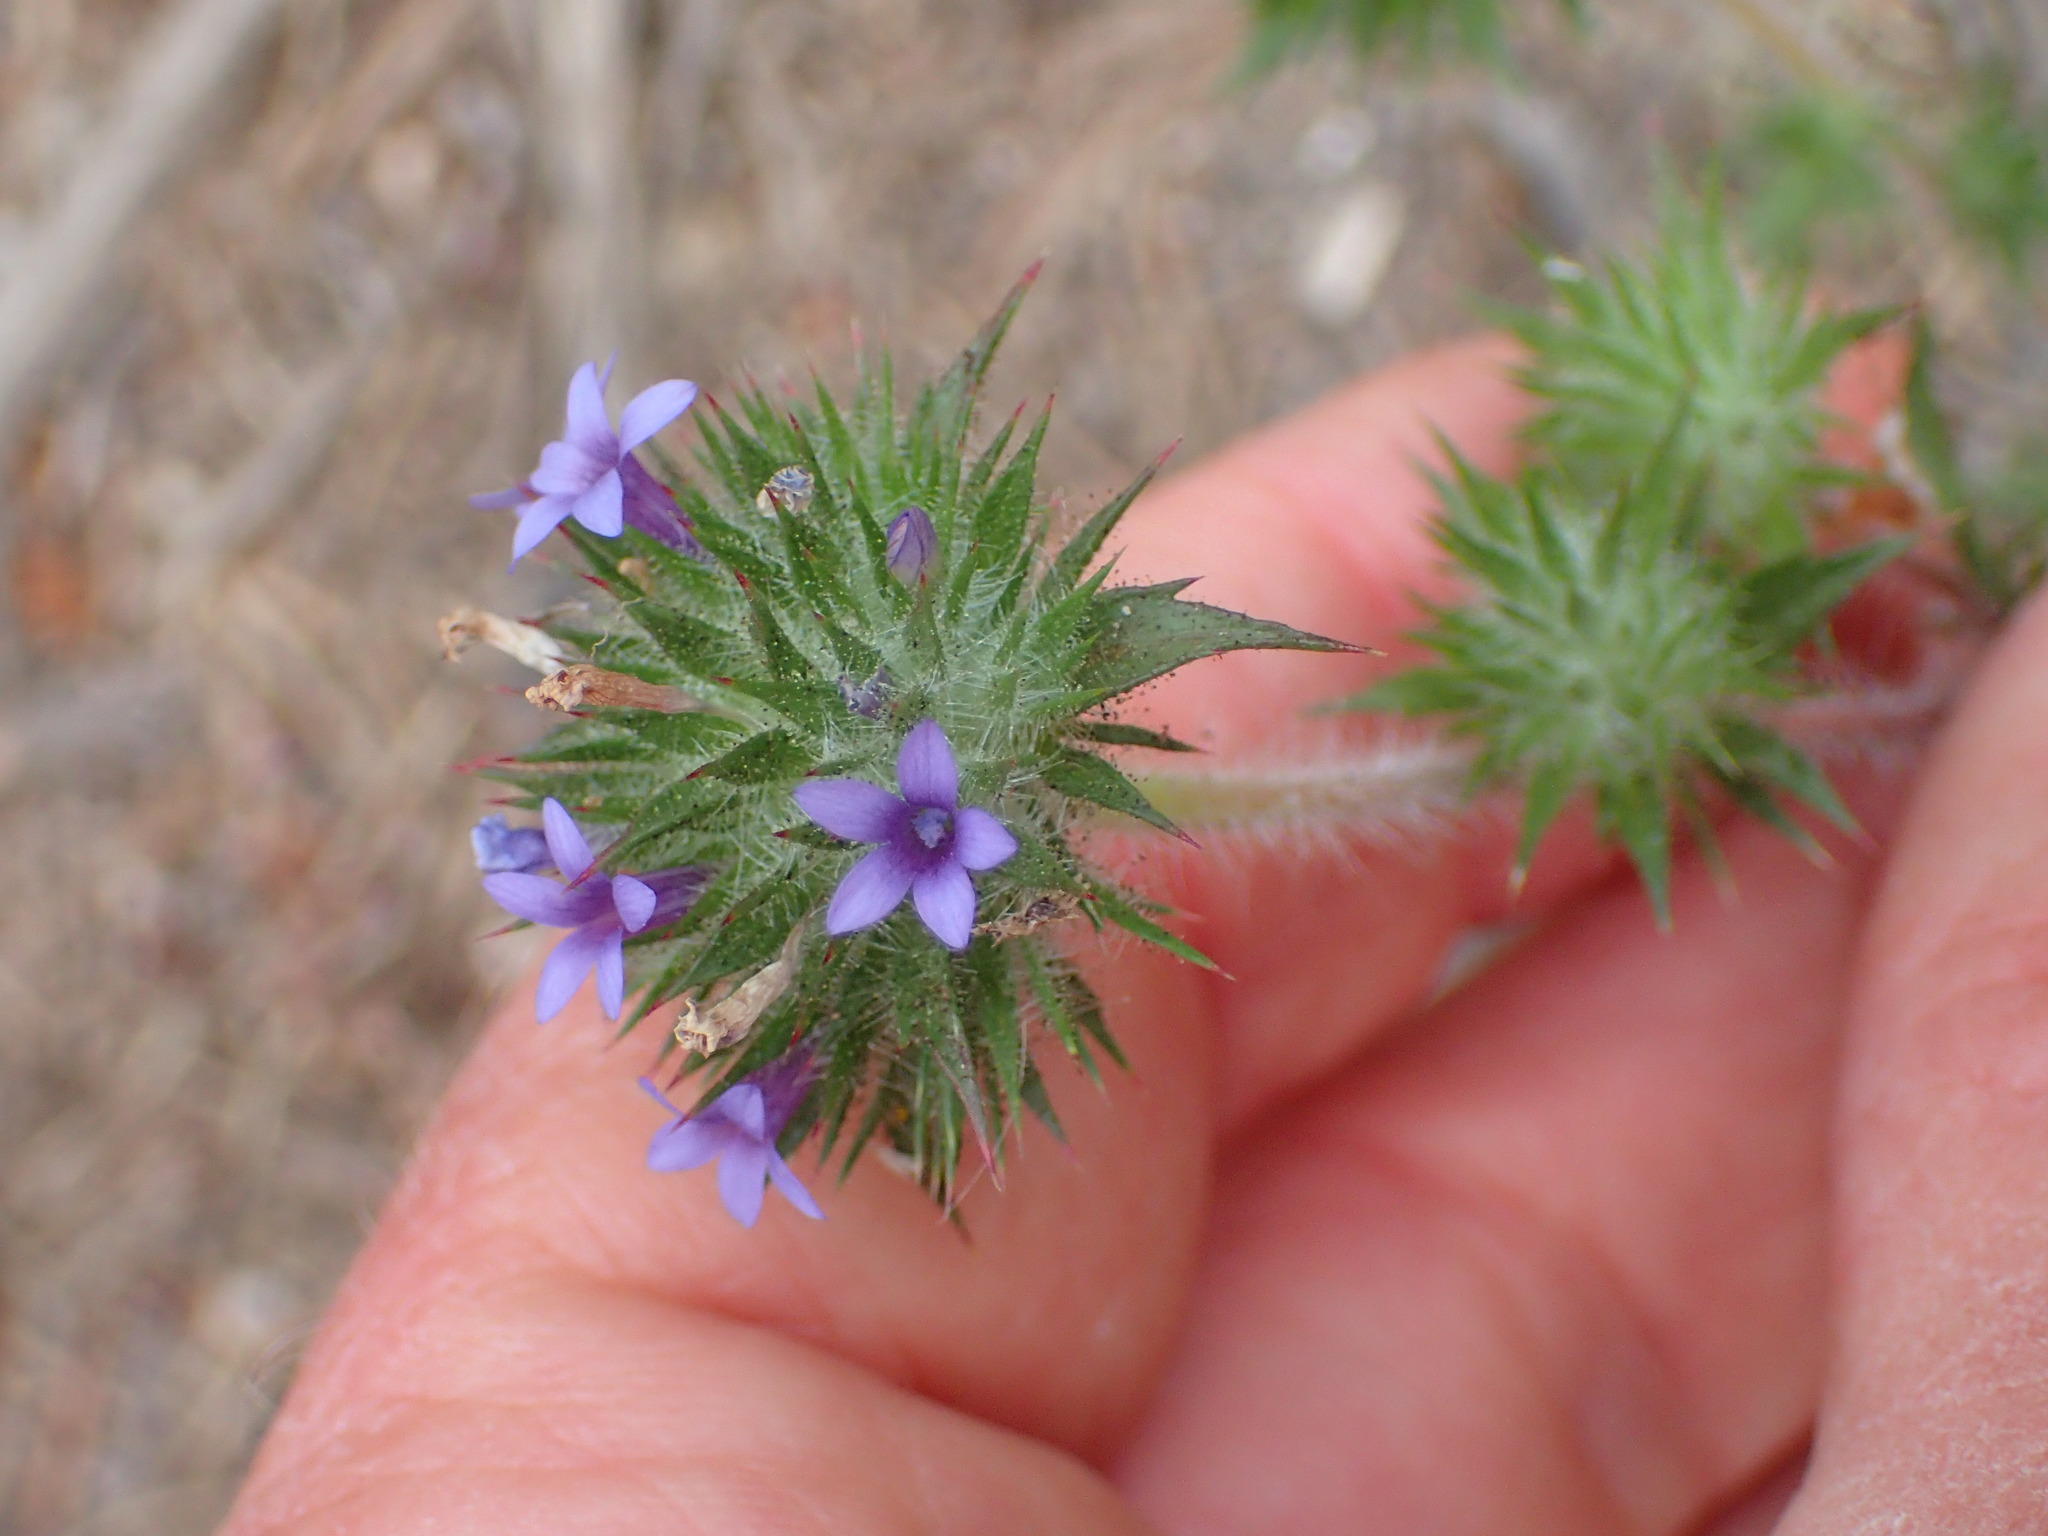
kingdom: Plantae
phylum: Tracheophyta
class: Magnoliopsida
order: Ericales
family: Polemoniaceae
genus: Navarretia
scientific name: Navarretia squarrosa
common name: Skunkweed
